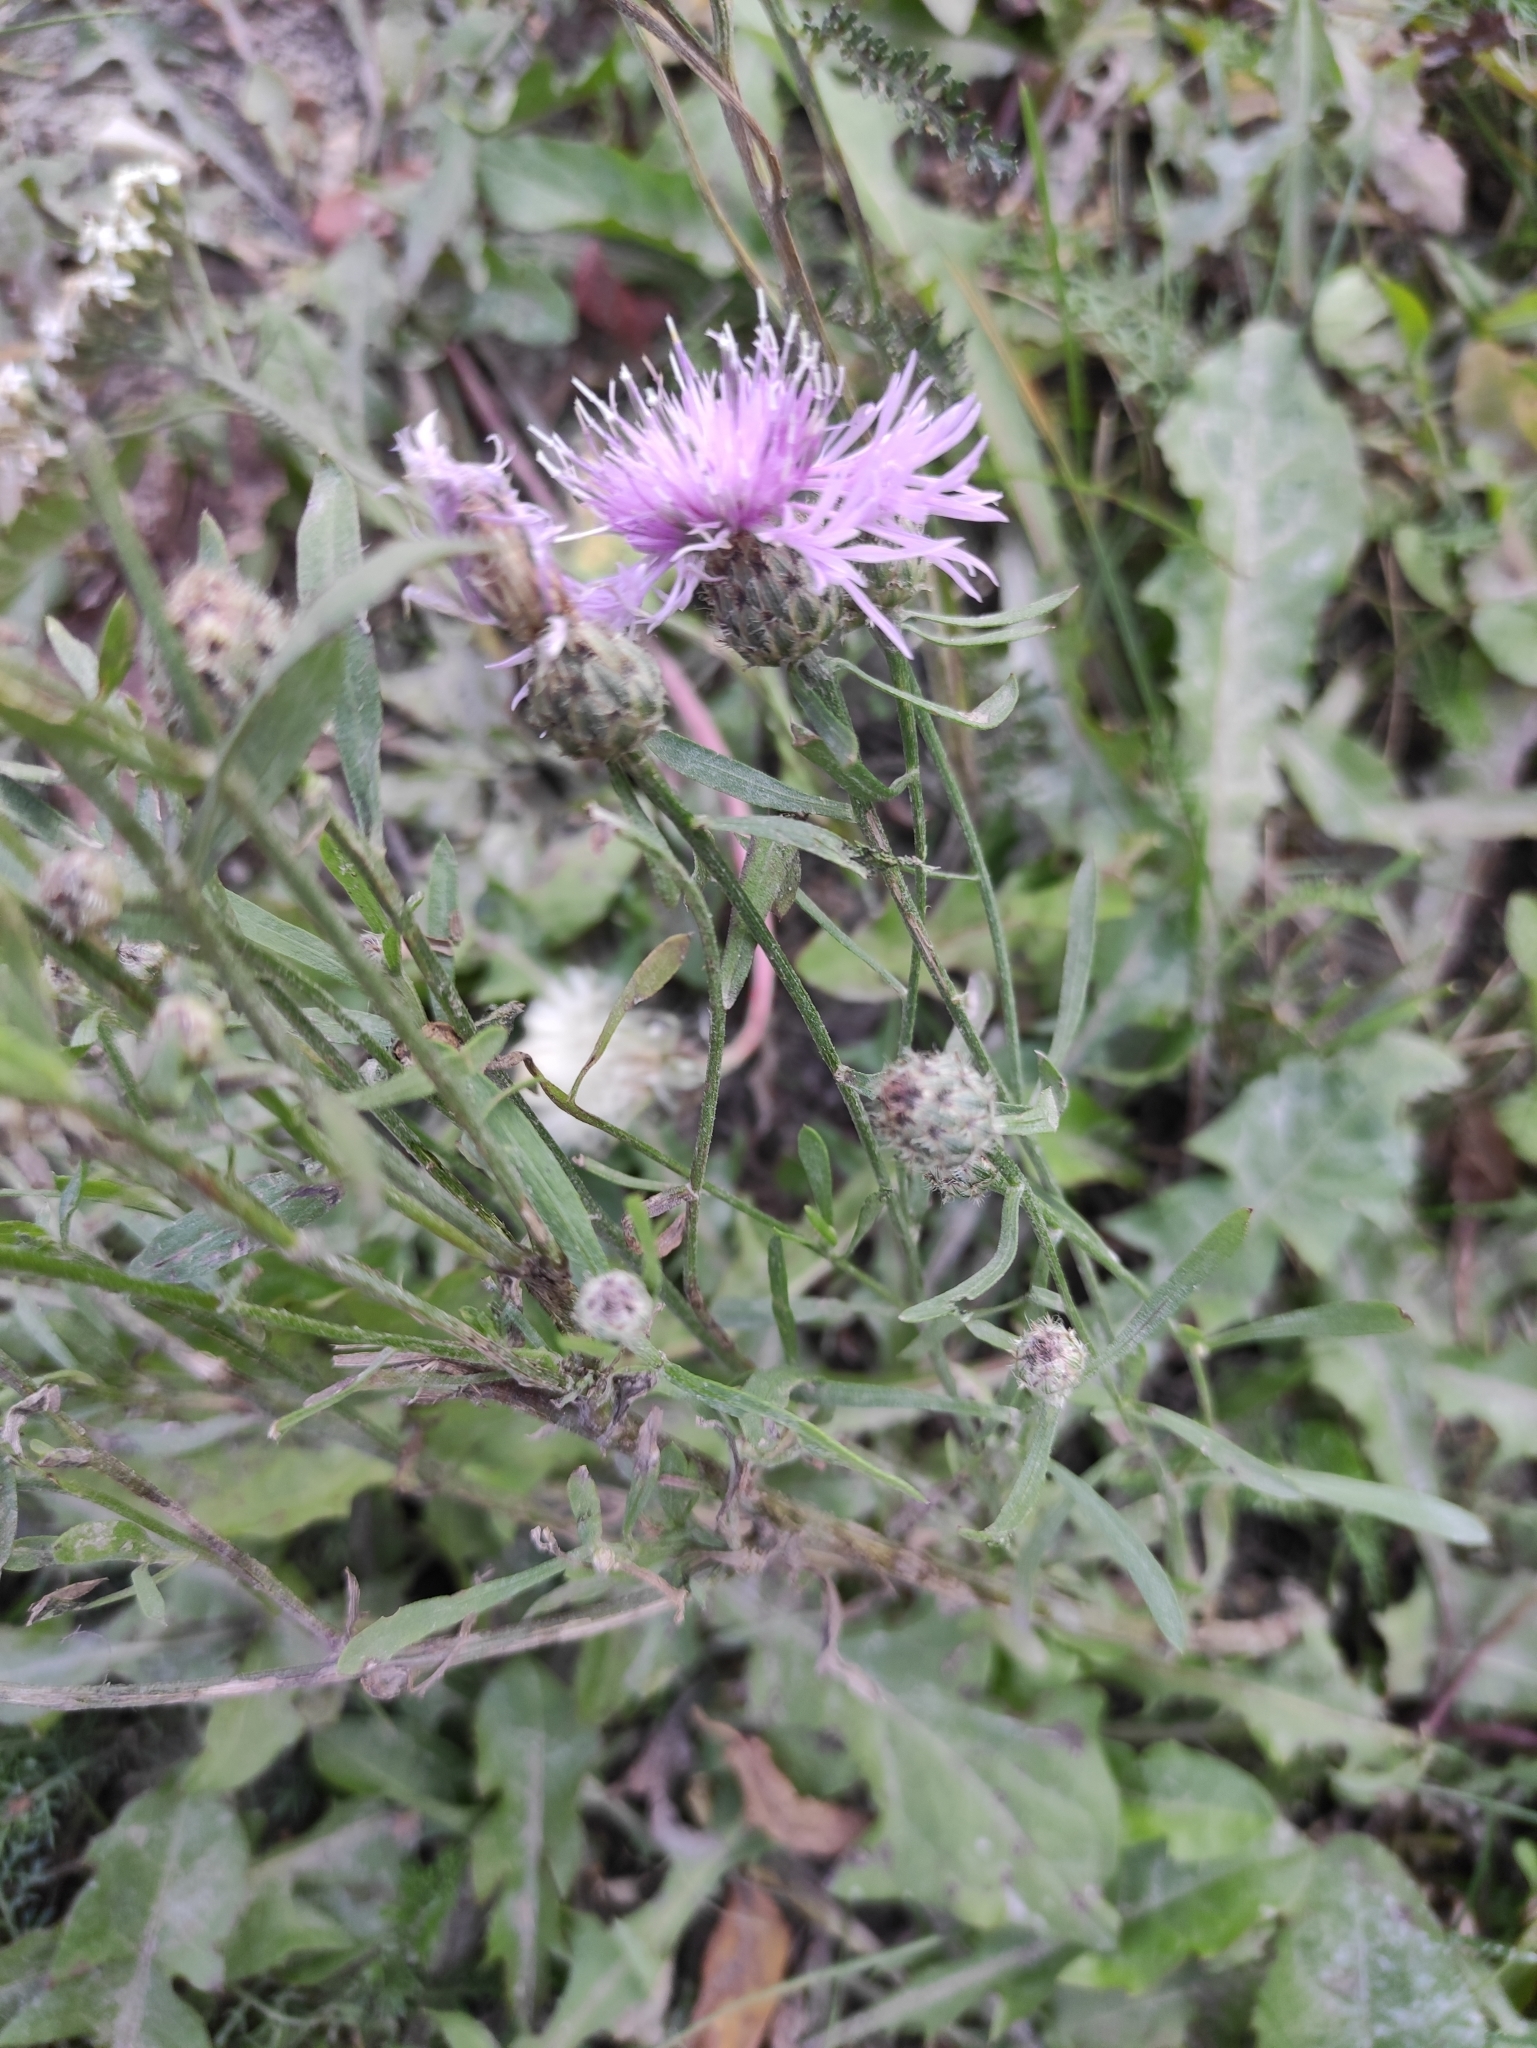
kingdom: Plantae
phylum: Tracheophyta
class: Magnoliopsida
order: Asterales
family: Asteraceae
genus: Centaurea
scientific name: Centaurea stoebe
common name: Spotted knapweed
